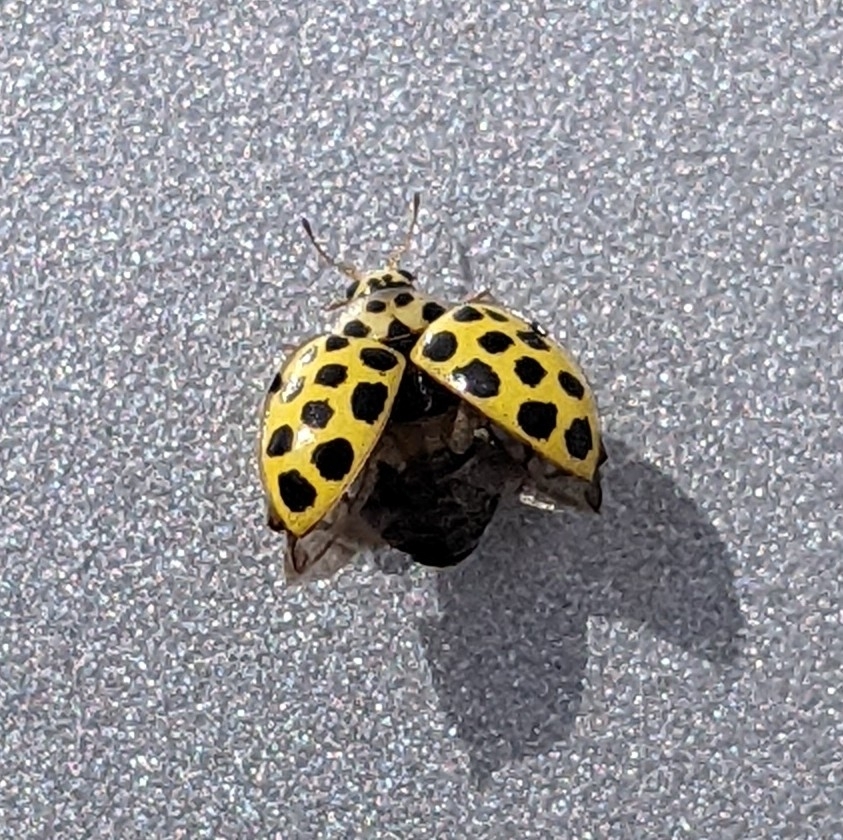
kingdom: Animalia
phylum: Arthropoda
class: Insecta
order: Coleoptera
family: Coccinellidae
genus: Psyllobora
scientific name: Psyllobora vigintiduopunctata
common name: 22-spot ladybird
